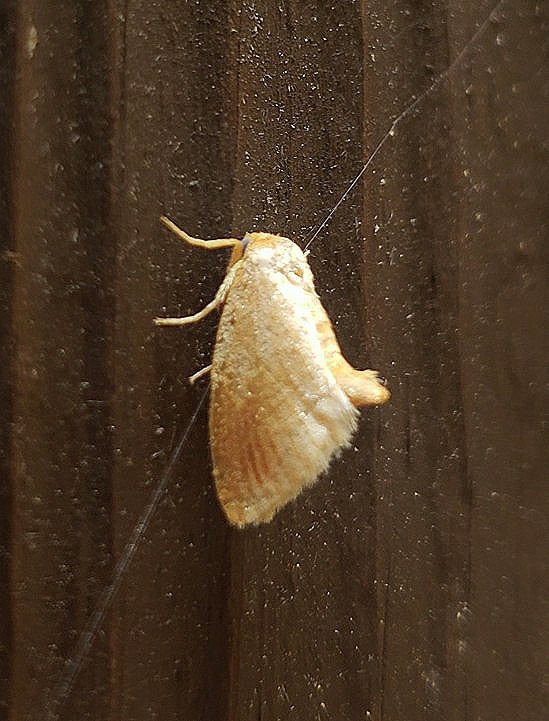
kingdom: Animalia
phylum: Arthropoda
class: Insecta
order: Lepidoptera
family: Limacodidae
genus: Tortricidia
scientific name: Tortricidia testacea
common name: Early button slug moth
